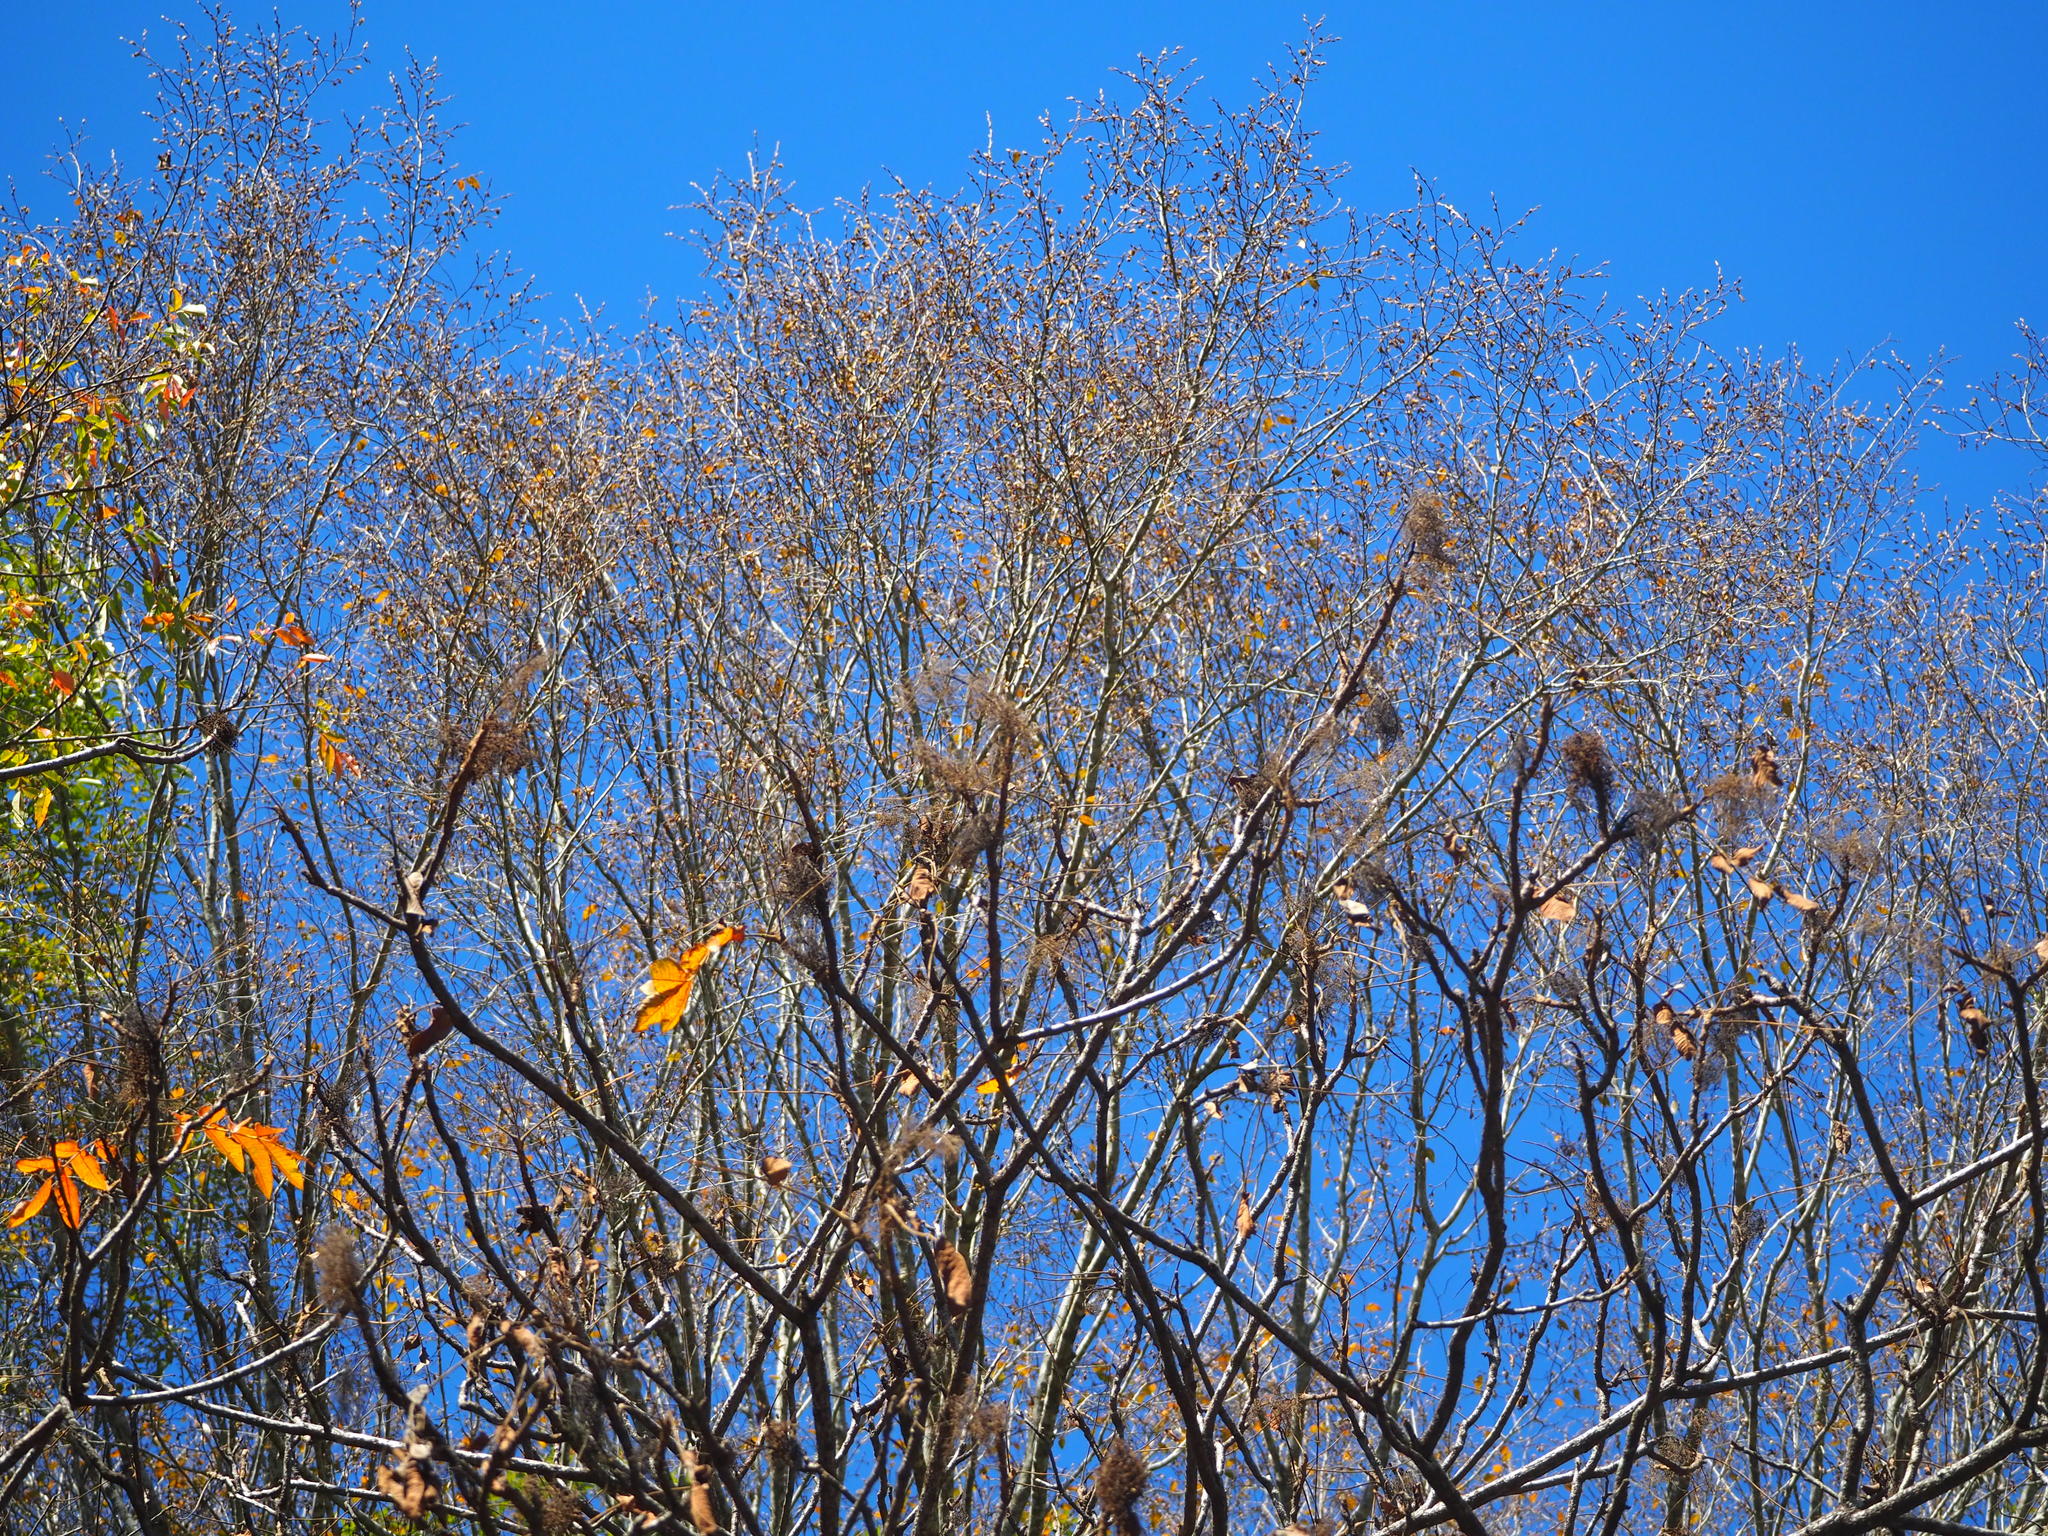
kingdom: Plantae
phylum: Tracheophyta
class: Magnoliopsida
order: Sapindales
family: Anacardiaceae
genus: Rhus
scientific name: Rhus chinensis
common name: Chinese gall
